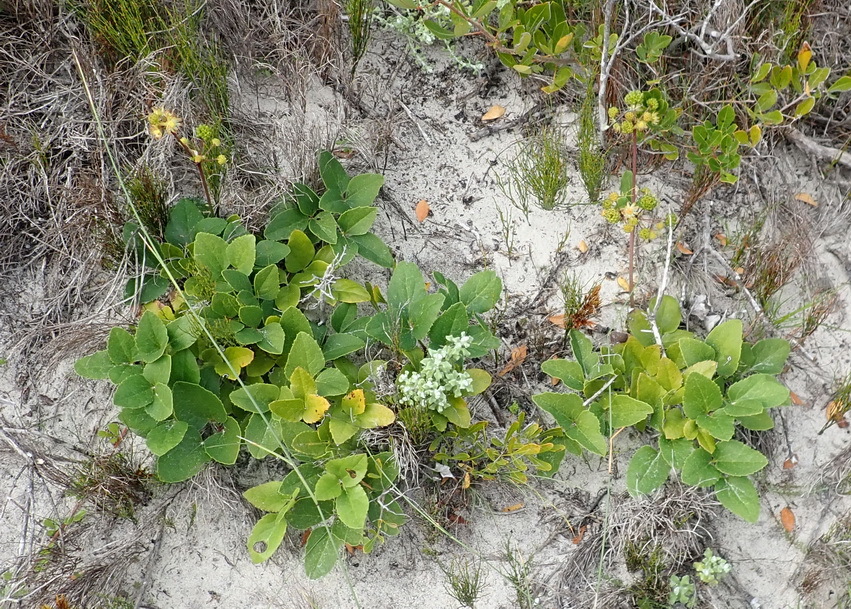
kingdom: Plantae
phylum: Tracheophyta
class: Magnoliopsida
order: Ranunculales
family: Ranunculaceae
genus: Knowltonia
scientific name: Knowltonia vesicatoria
